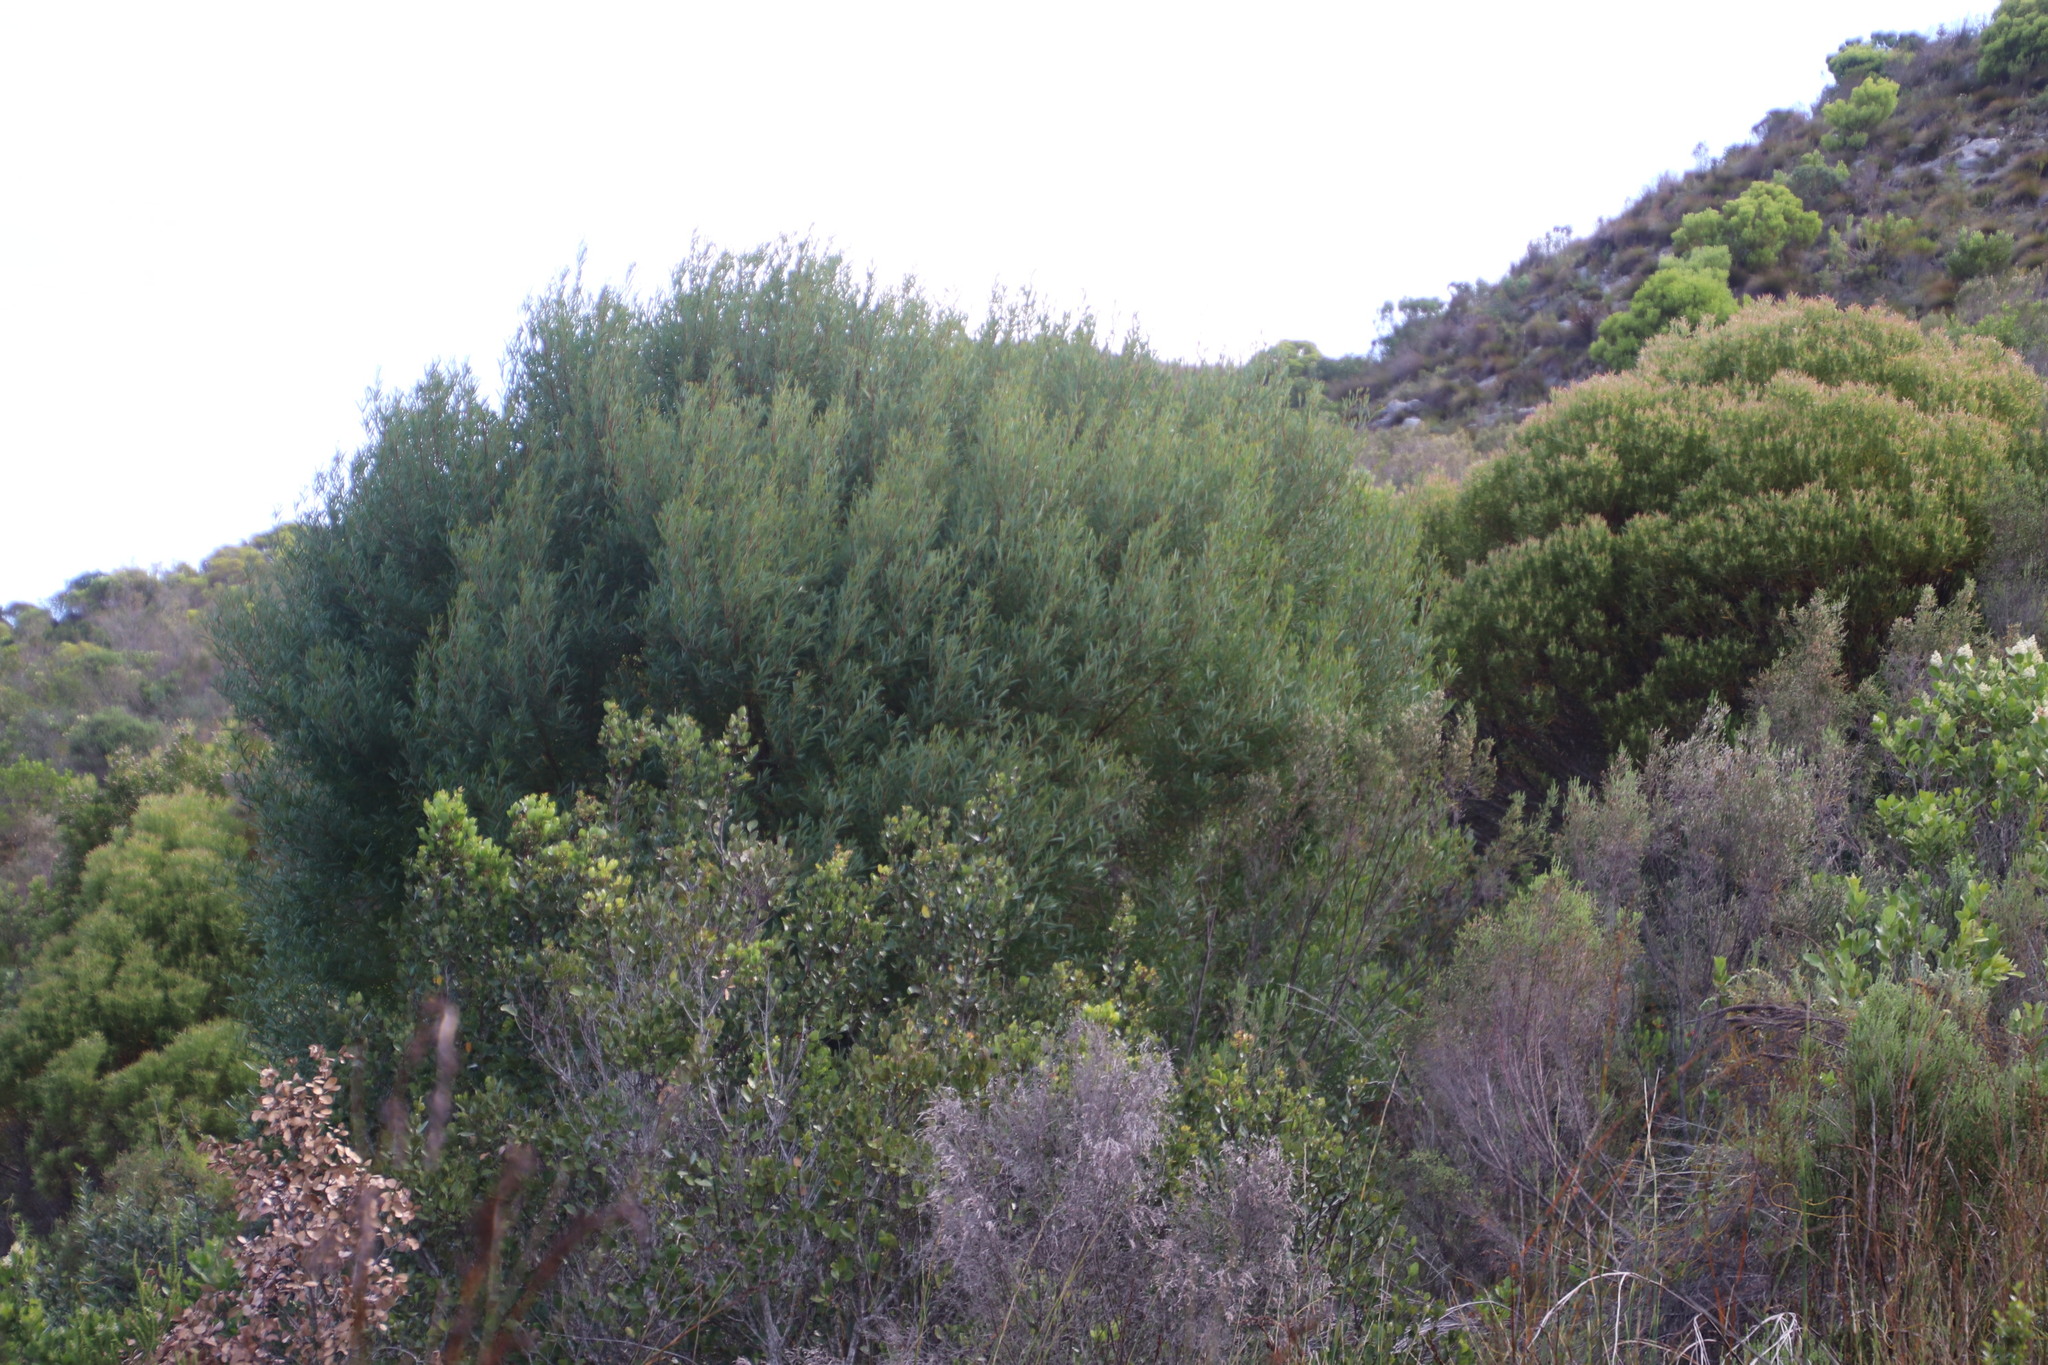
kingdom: Plantae
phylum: Tracheophyta
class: Magnoliopsida
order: Fabales
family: Fabaceae
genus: Acacia
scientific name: Acacia cyclops
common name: Coastal wattle
